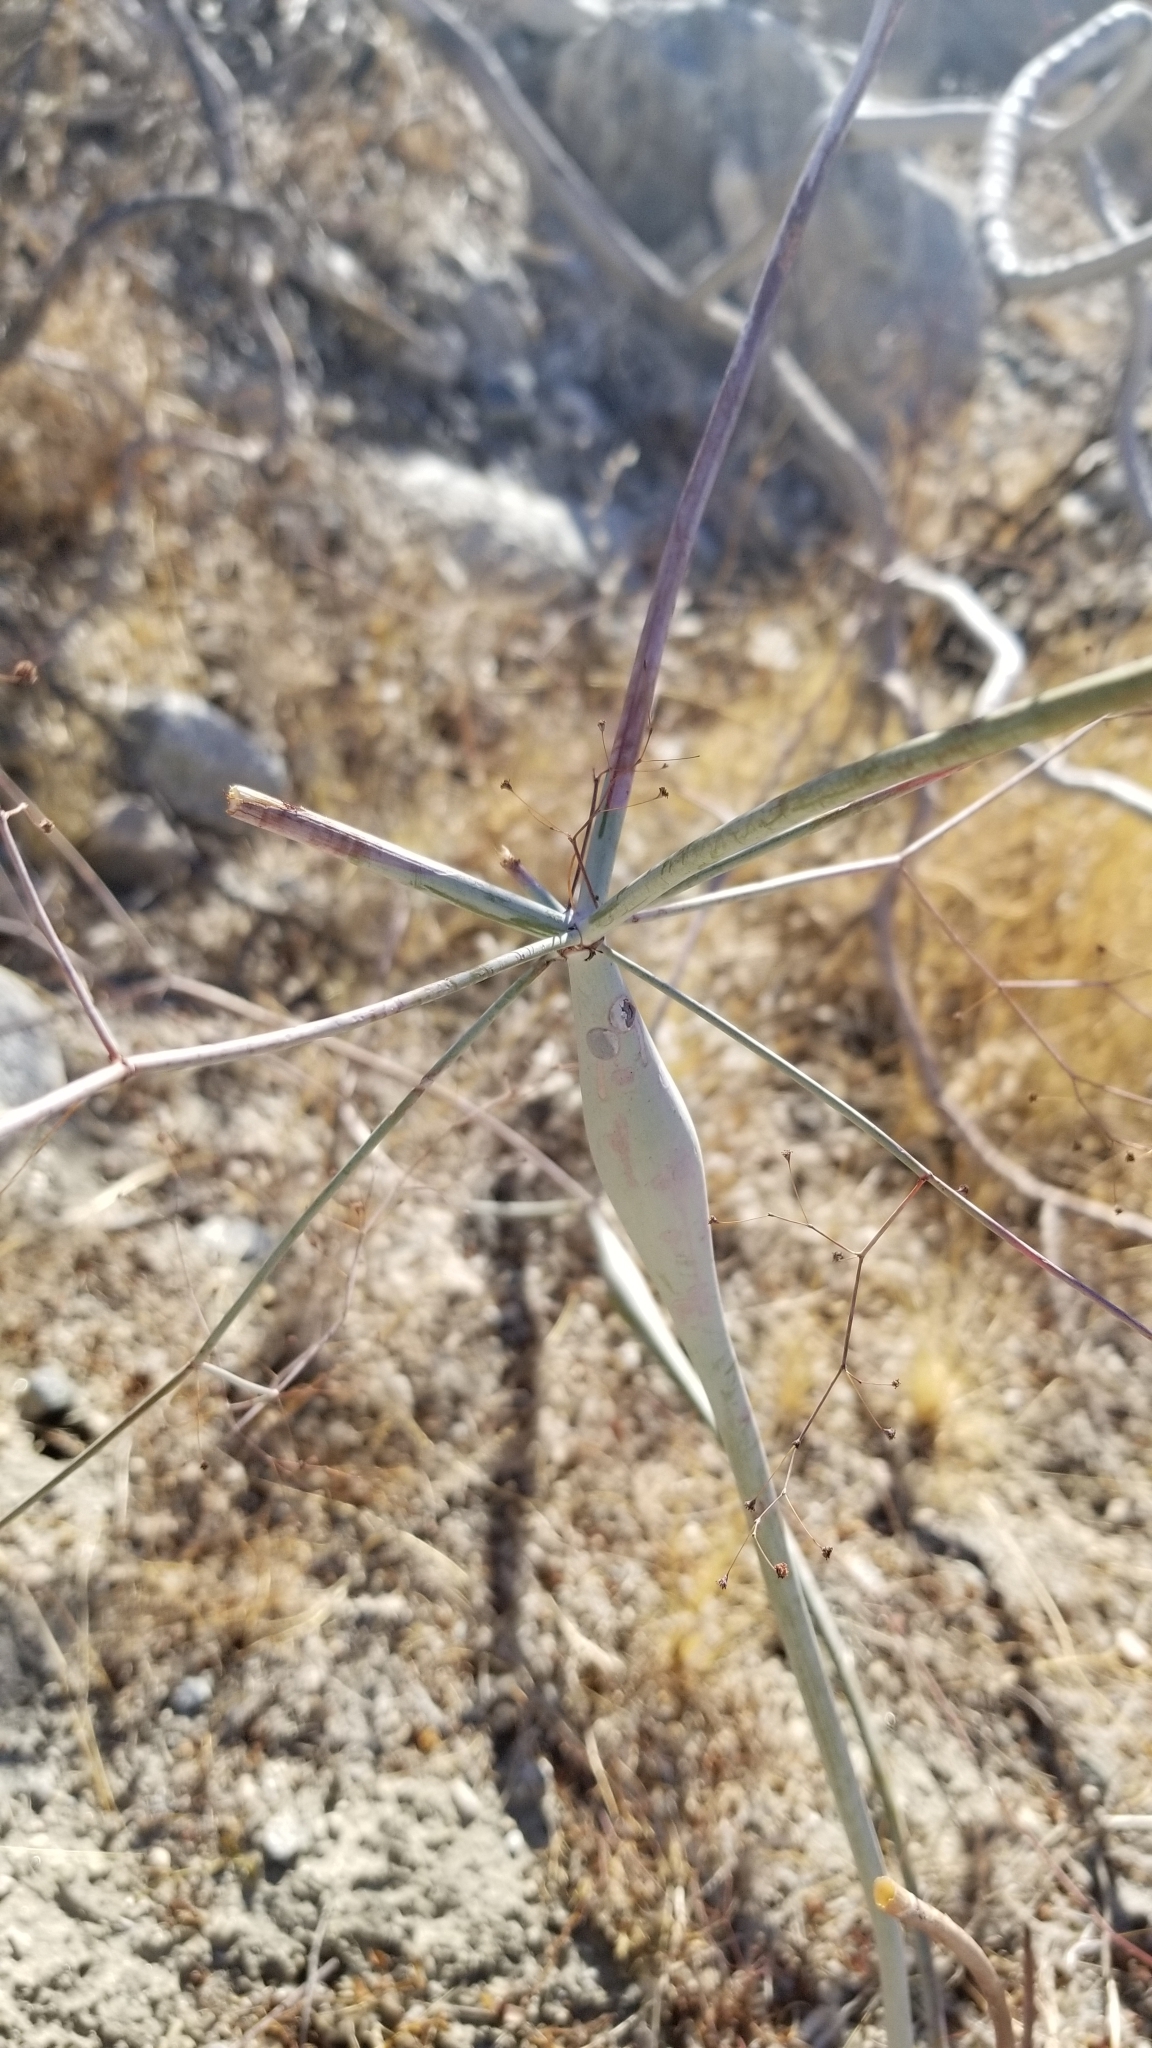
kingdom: Plantae
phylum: Tracheophyta
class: Magnoliopsida
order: Caryophyllales
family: Polygonaceae
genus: Eriogonum
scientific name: Eriogonum inflatum
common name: Desert trumpet
